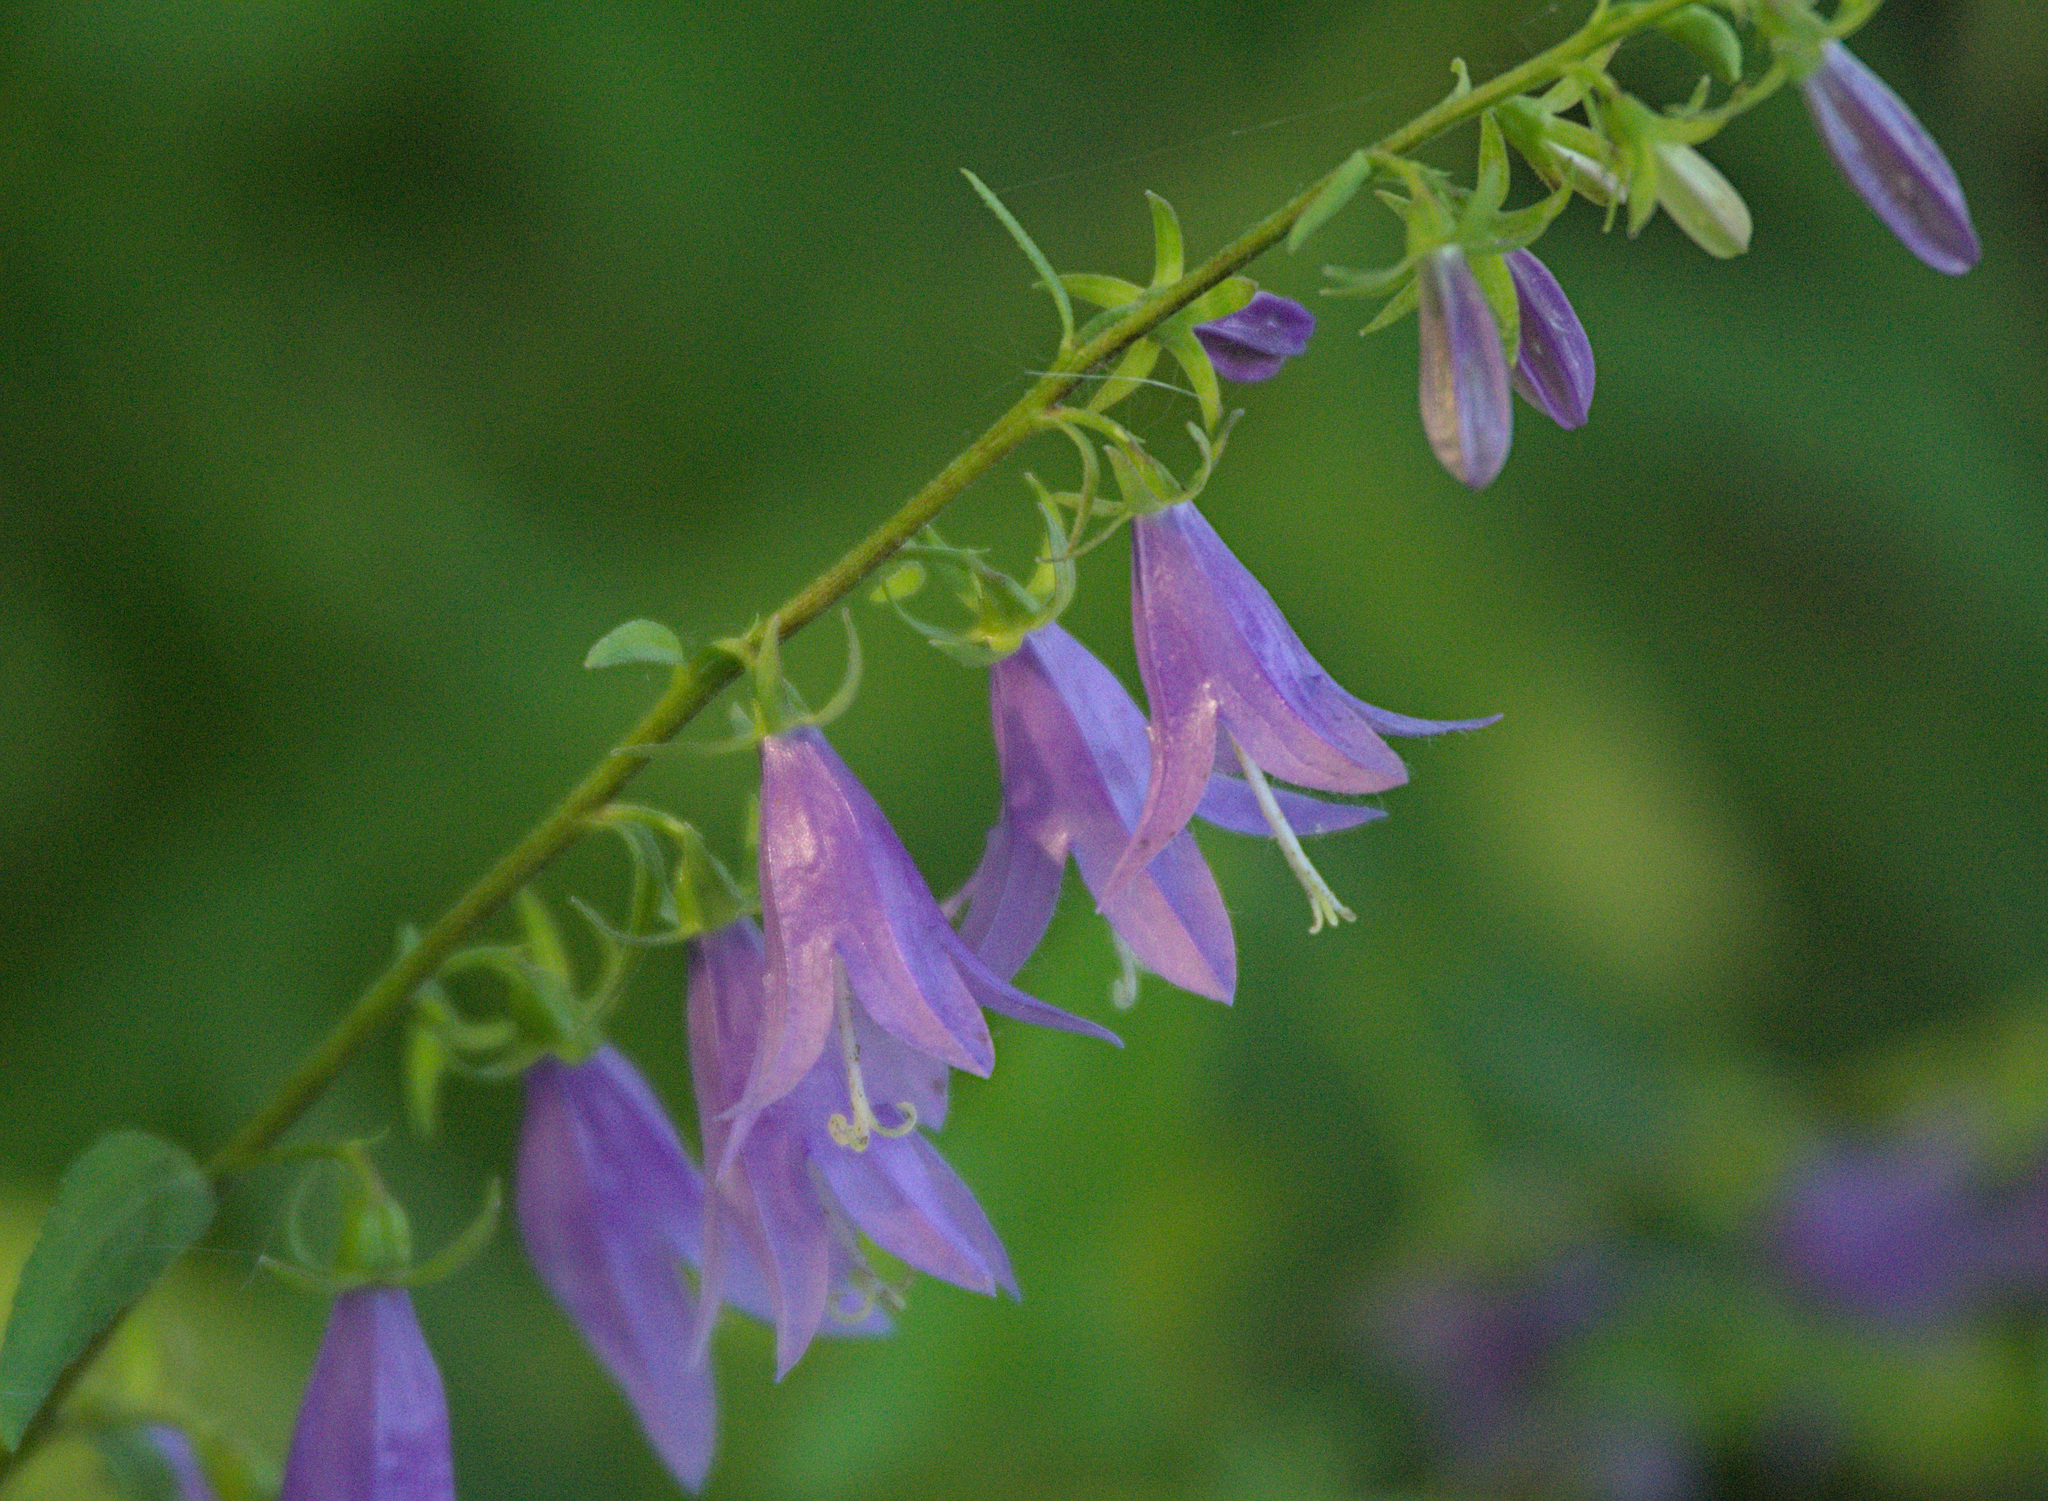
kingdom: Plantae
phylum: Tracheophyta
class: Magnoliopsida
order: Asterales
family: Campanulaceae
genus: Campanula
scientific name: Campanula rapunculoides
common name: Creeping bellflower
